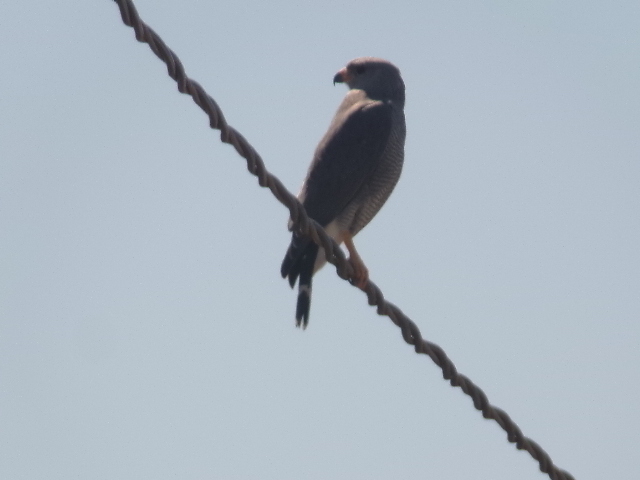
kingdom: Animalia
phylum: Chordata
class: Aves
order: Accipitriformes
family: Accipitridae
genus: Buteo
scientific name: Buteo nitidus
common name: Grey-lined hawk
